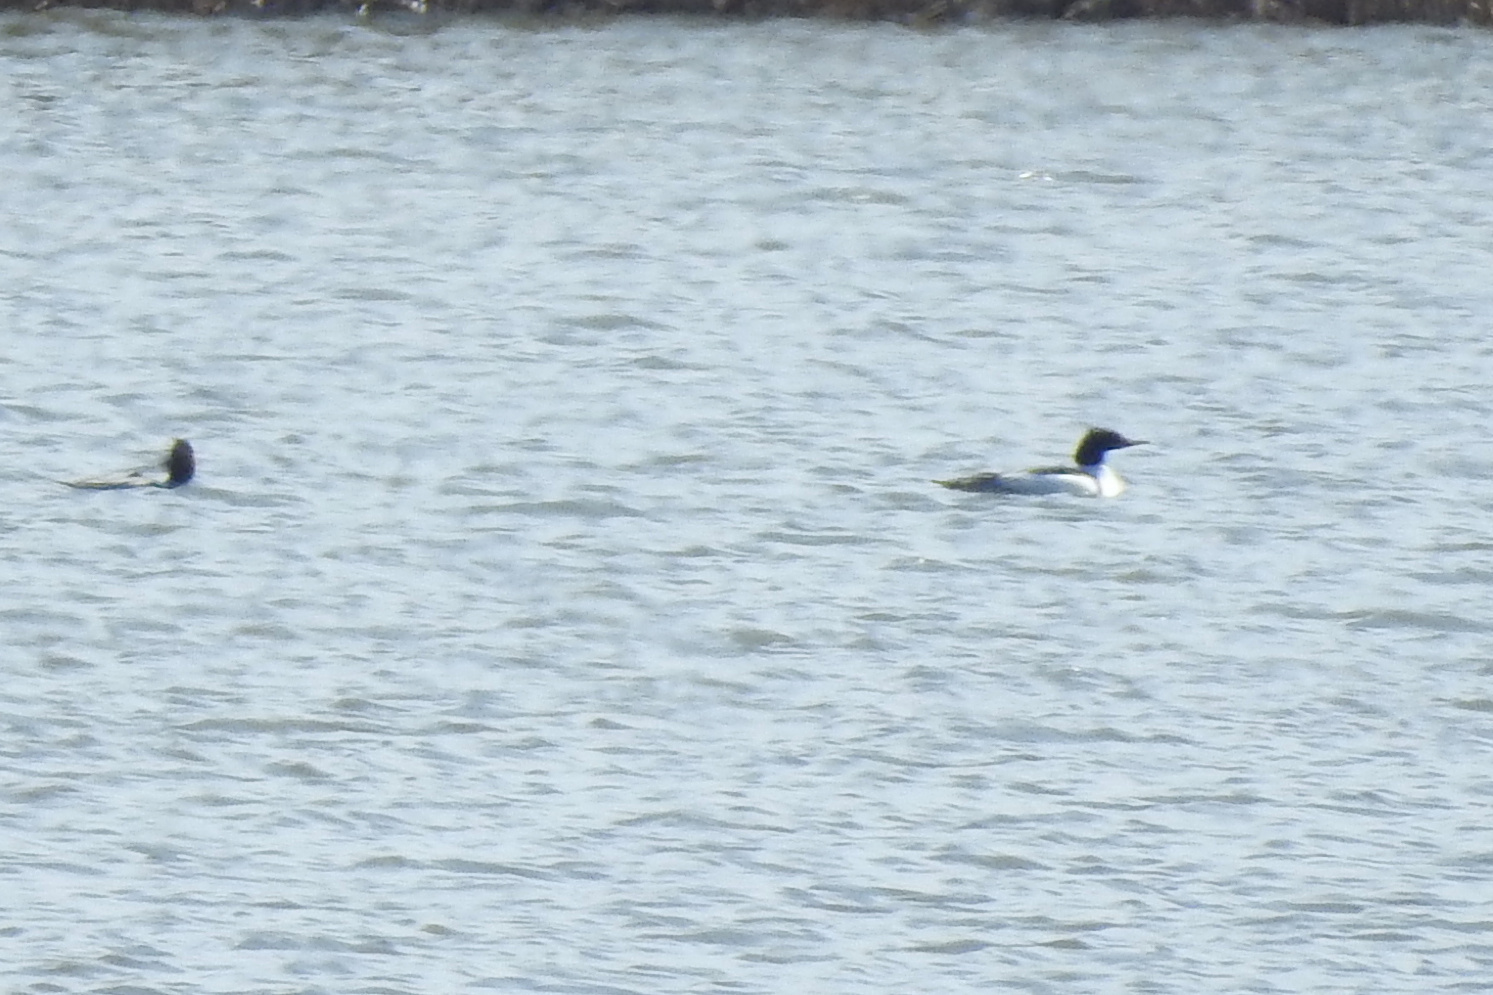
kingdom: Animalia
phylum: Chordata
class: Aves
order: Anseriformes
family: Anatidae
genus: Mergus
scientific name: Mergus merganser
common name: Common merganser
